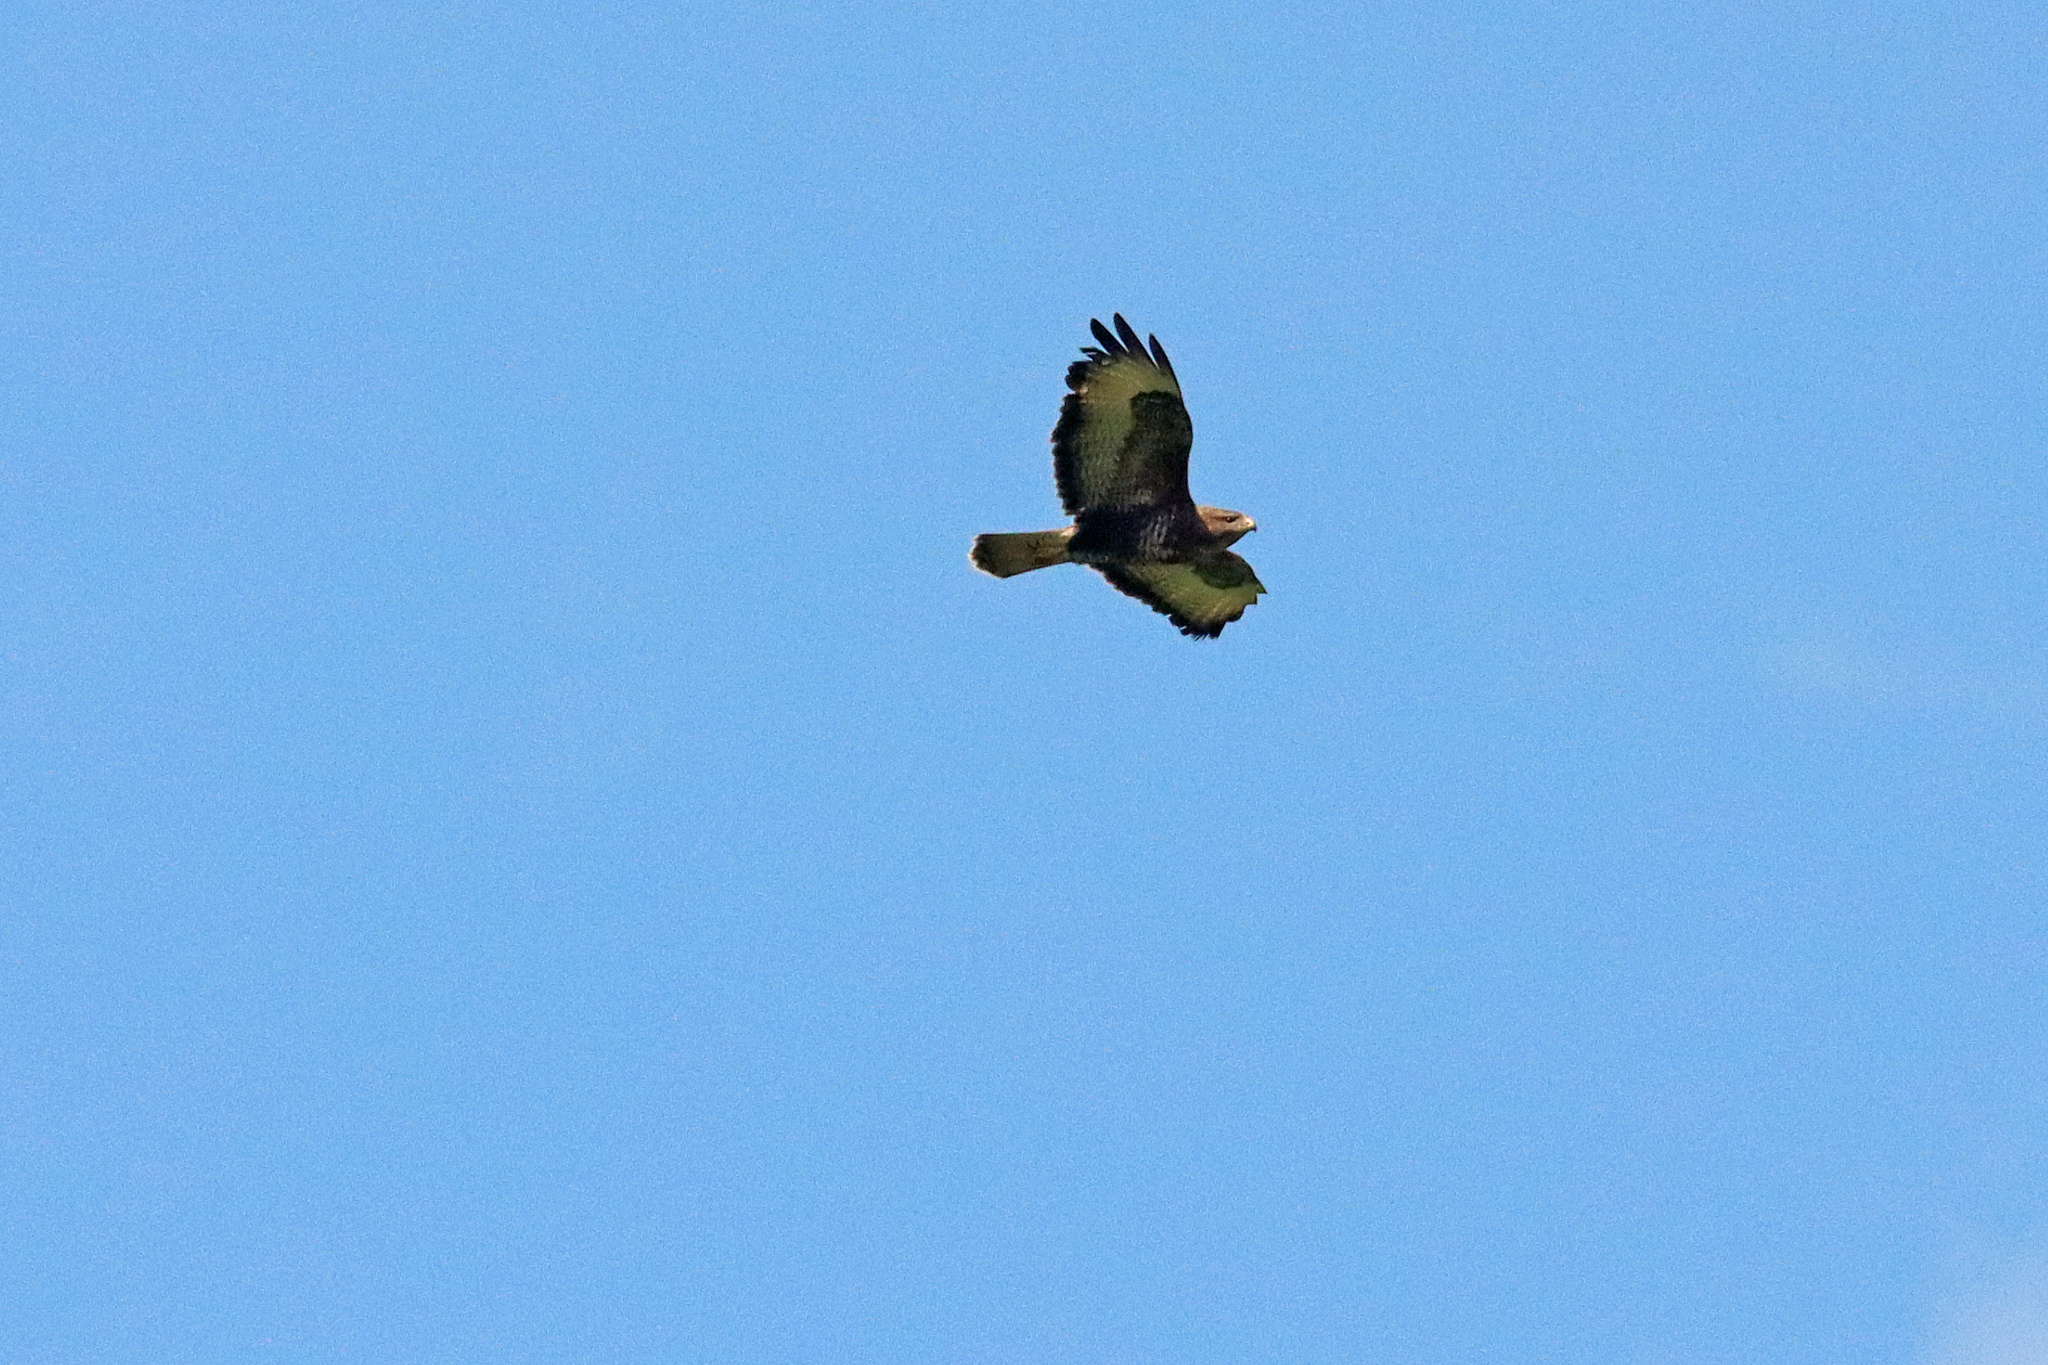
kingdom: Animalia
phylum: Chordata
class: Aves
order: Accipitriformes
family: Accipitridae
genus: Buteo
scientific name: Buteo buteo
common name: Common buzzard
